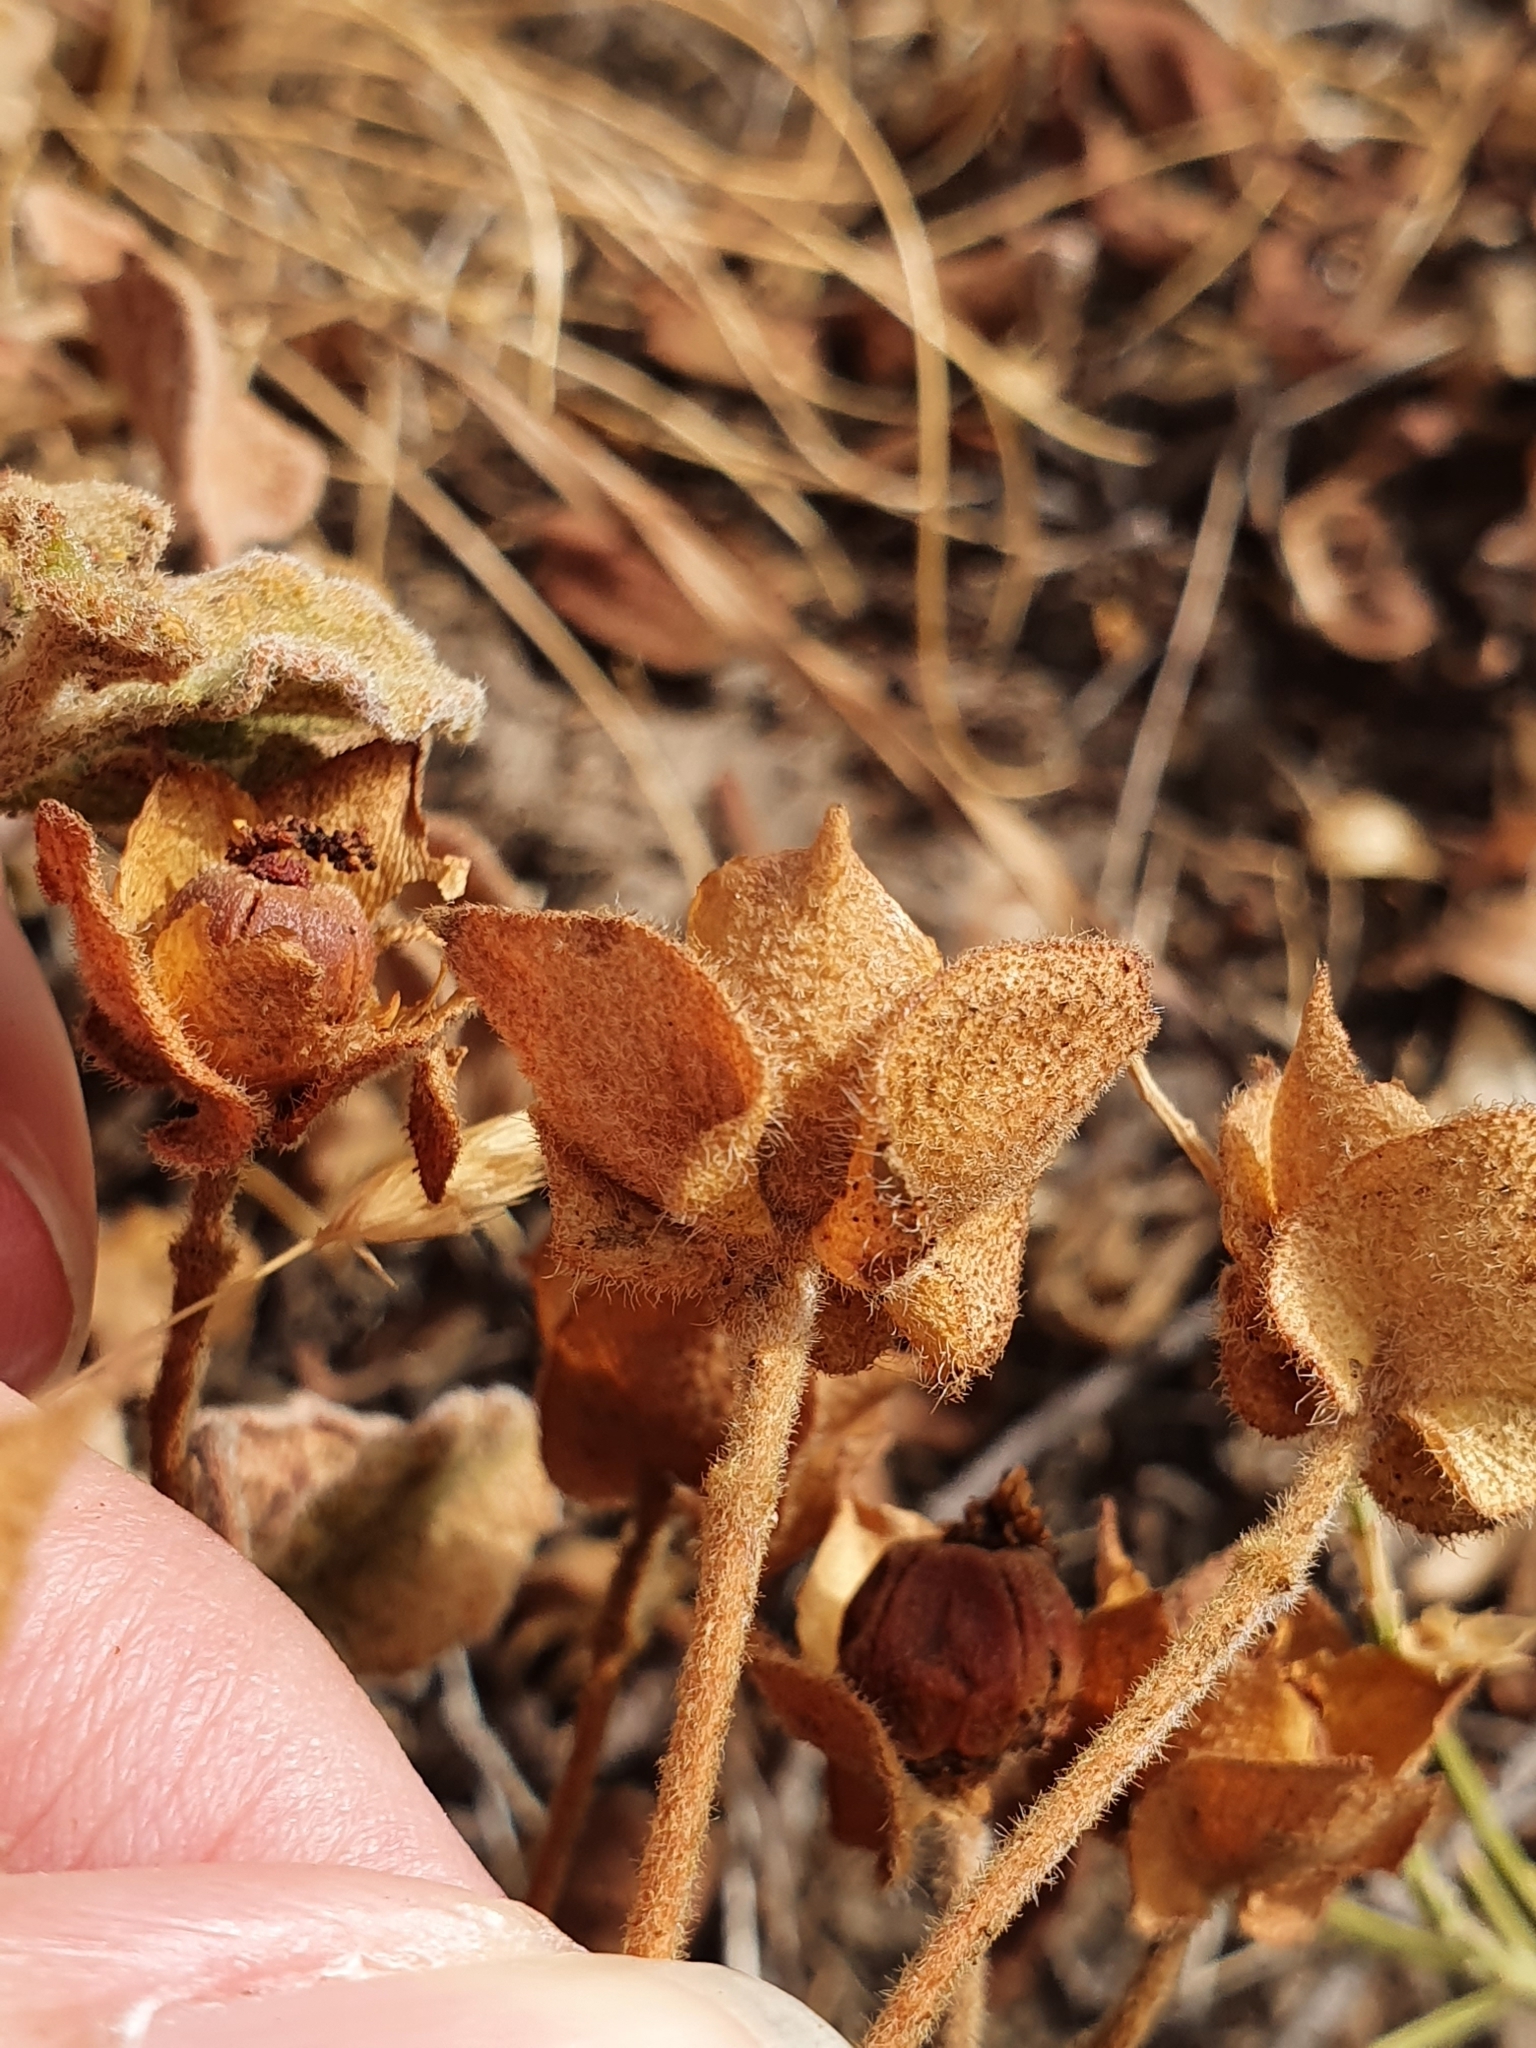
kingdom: Plantae
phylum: Tracheophyta
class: Magnoliopsida
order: Malvales
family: Cistaceae
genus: Cistus
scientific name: Cistus salviifolius
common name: Salvia cistus
